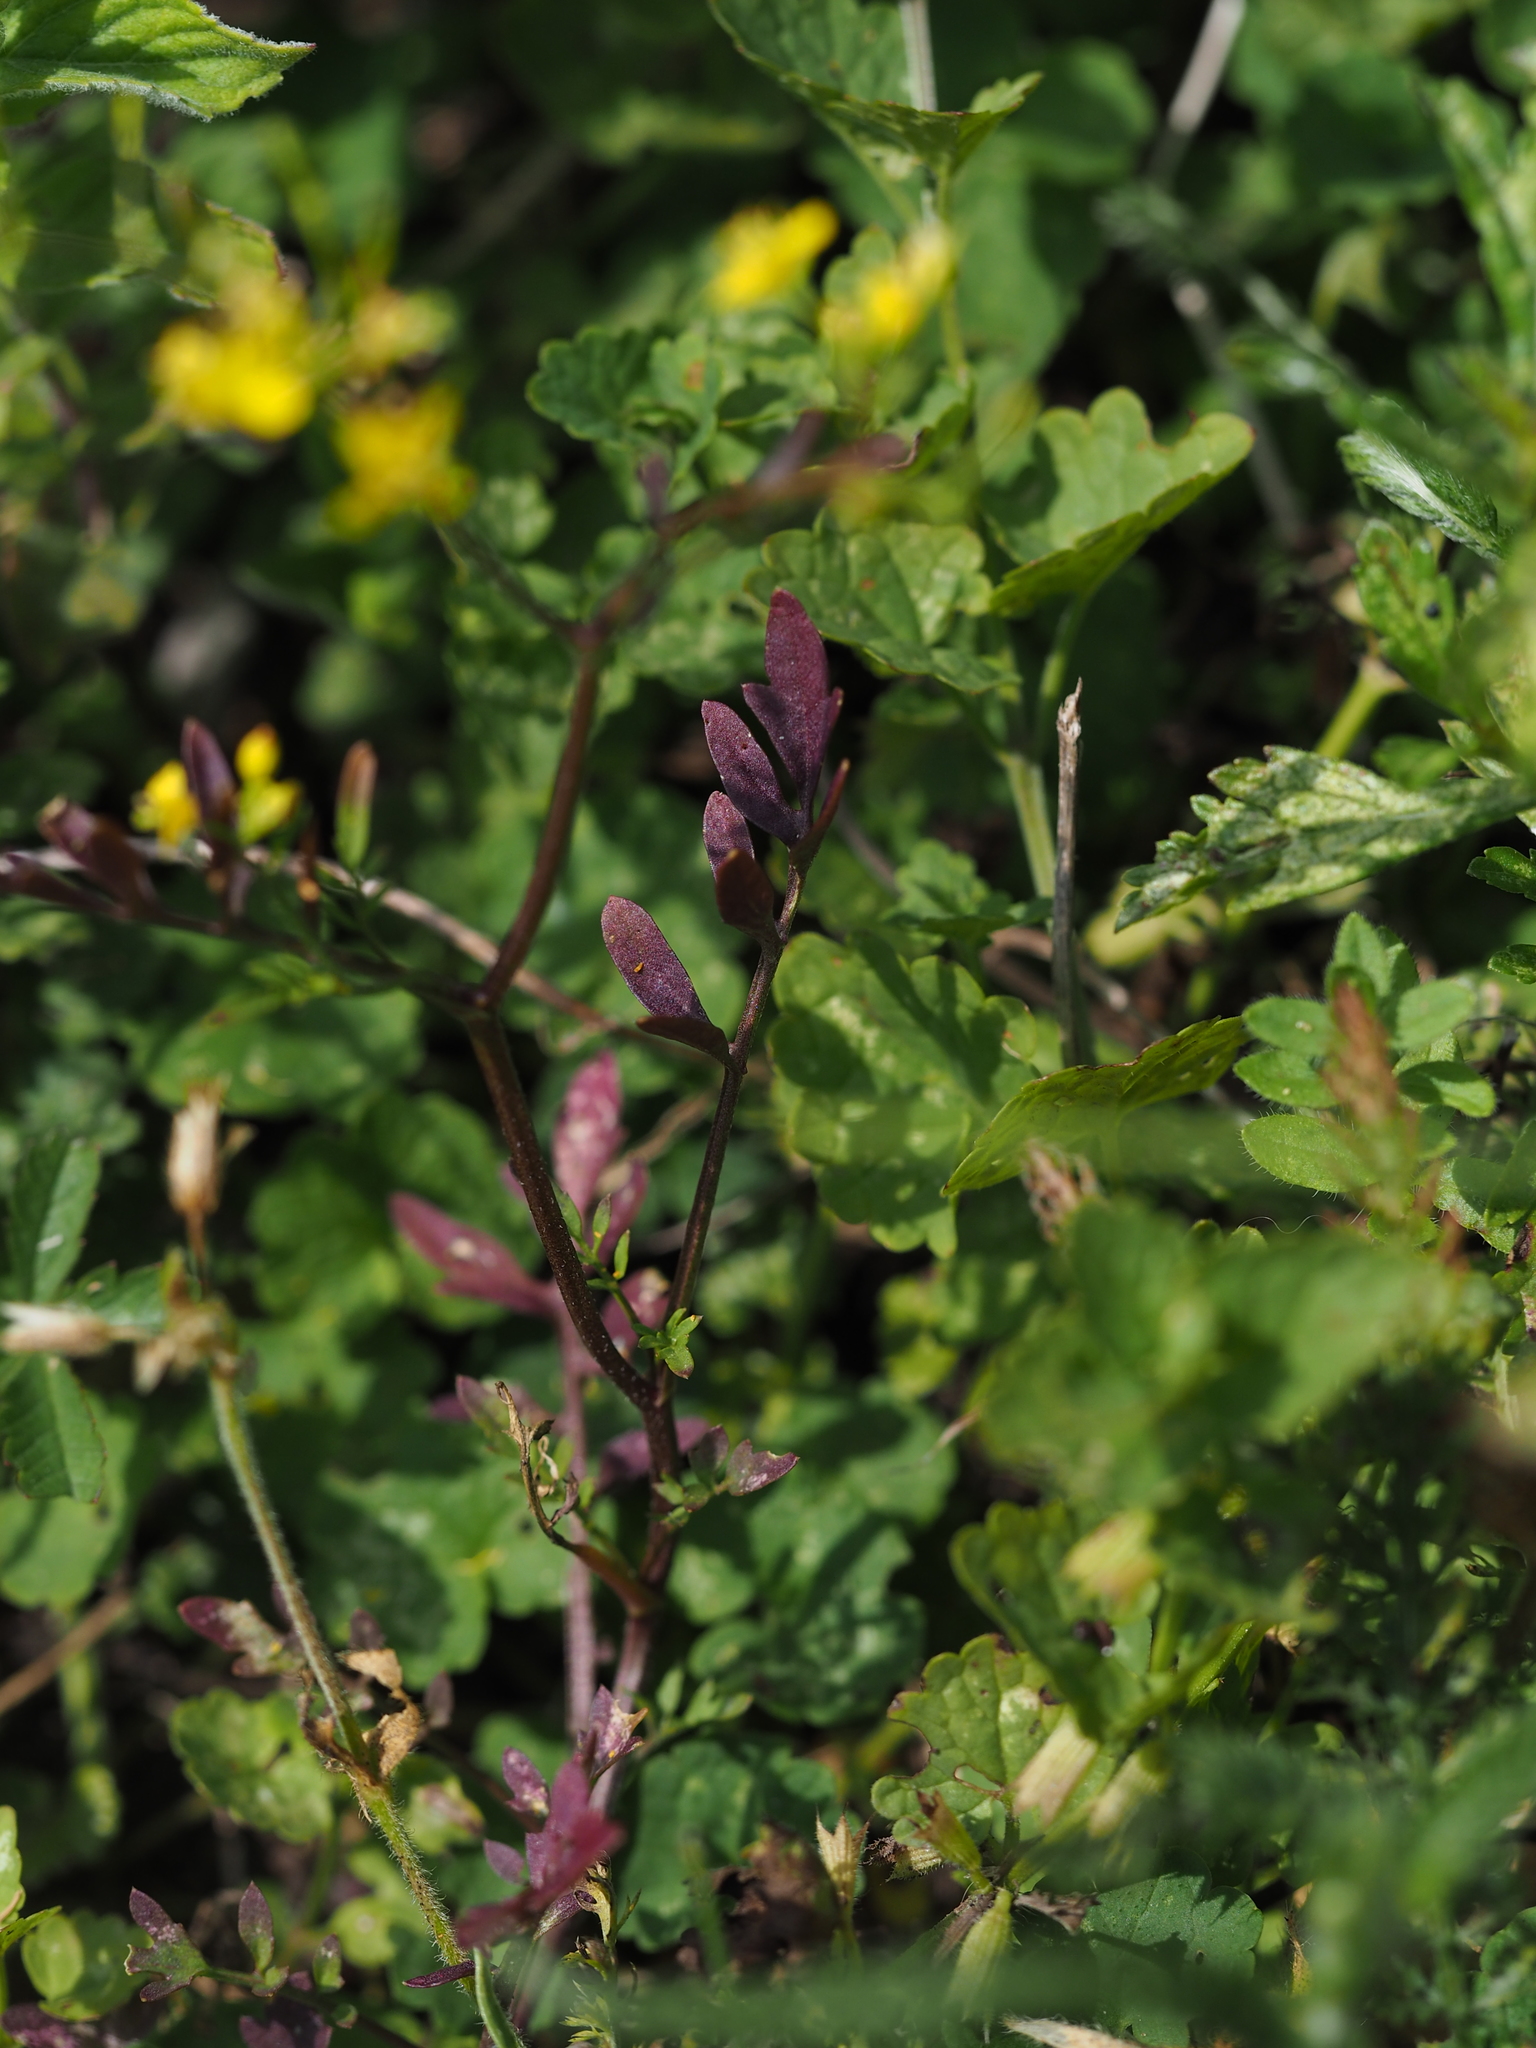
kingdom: Plantae
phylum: Tracheophyta
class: Magnoliopsida
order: Brassicales
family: Brassicaceae
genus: Rorippa
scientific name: Rorippa sylvestris
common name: Creeping yellowcress
